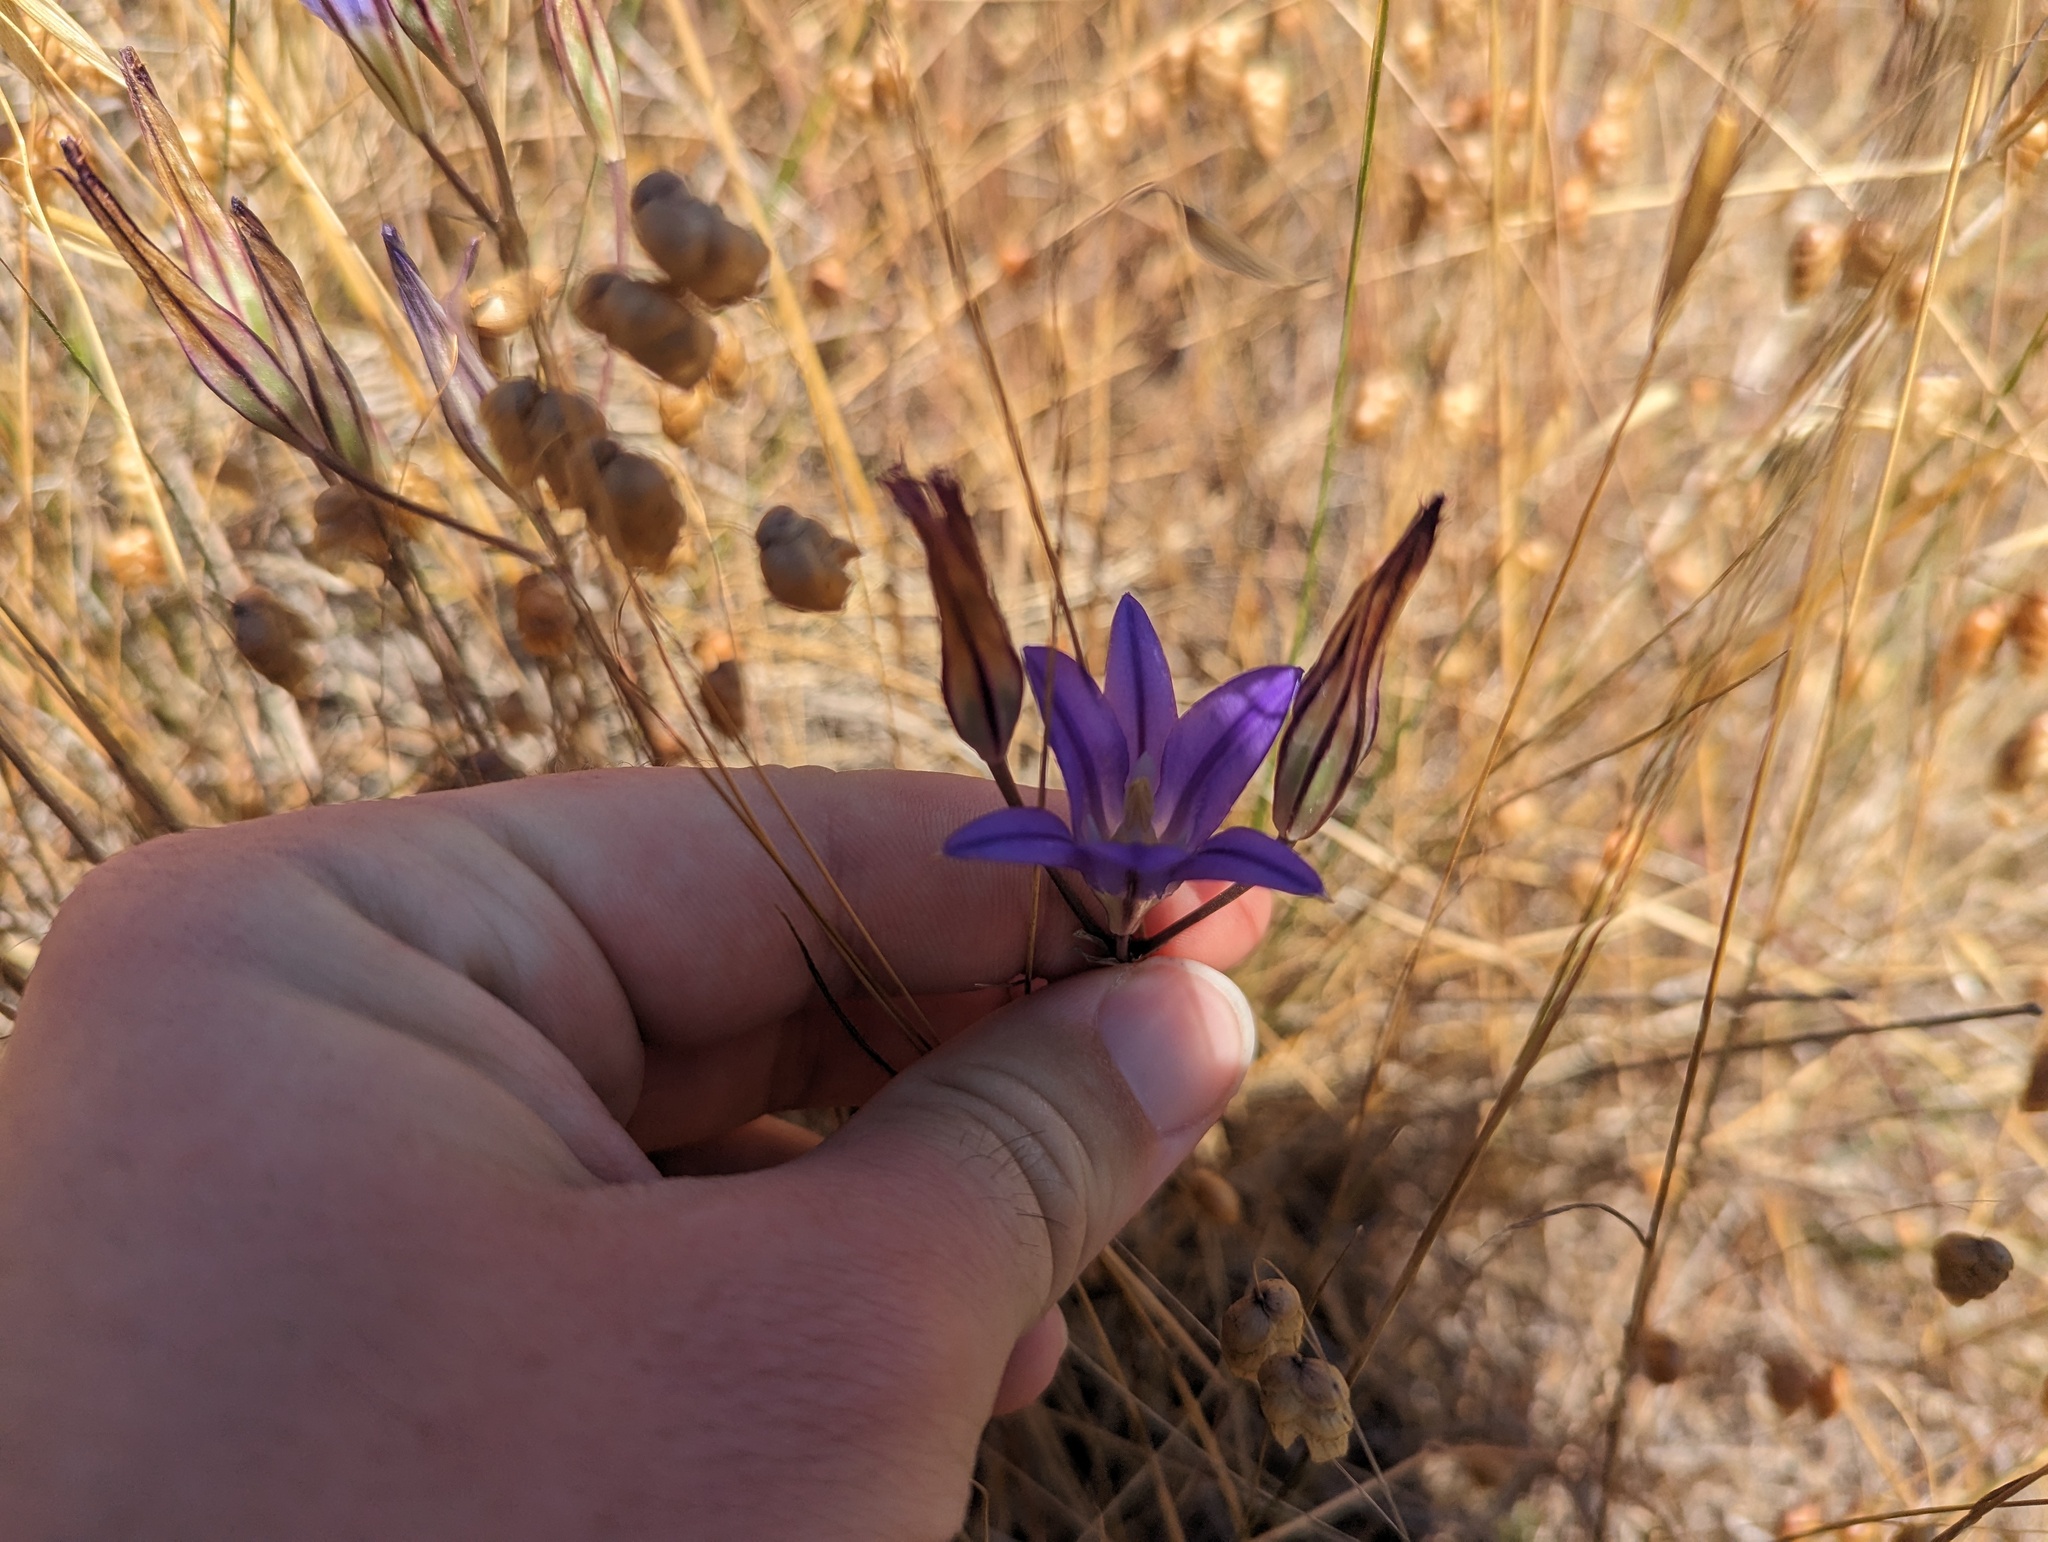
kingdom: Plantae
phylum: Tracheophyta
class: Liliopsida
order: Asparagales
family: Asparagaceae
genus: Brodiaea
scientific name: Brodiaea elegans
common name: Elegant cluster-lily
